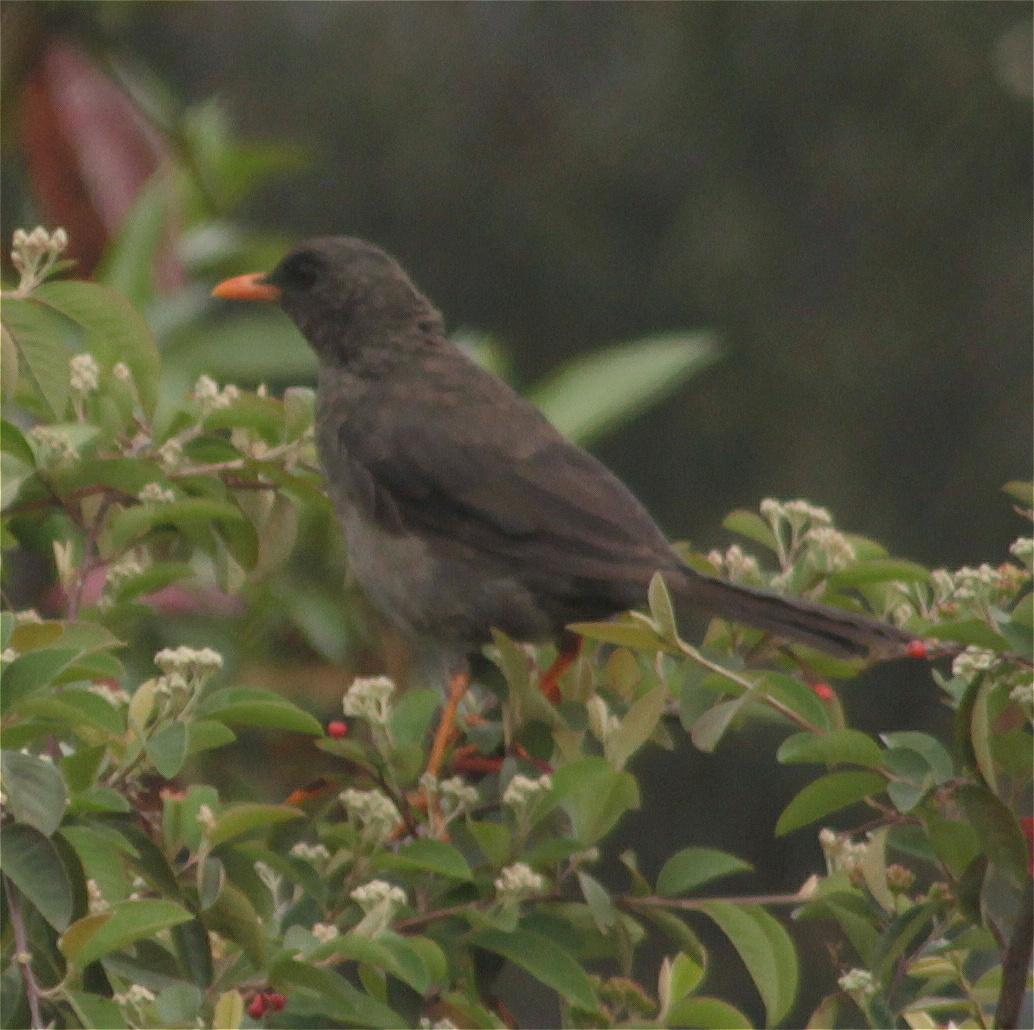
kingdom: Animalia
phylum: Chordata
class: Aves
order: Passeriformes
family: Turdidae
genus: Turdus
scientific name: Turdus fuscater
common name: Great thrush
